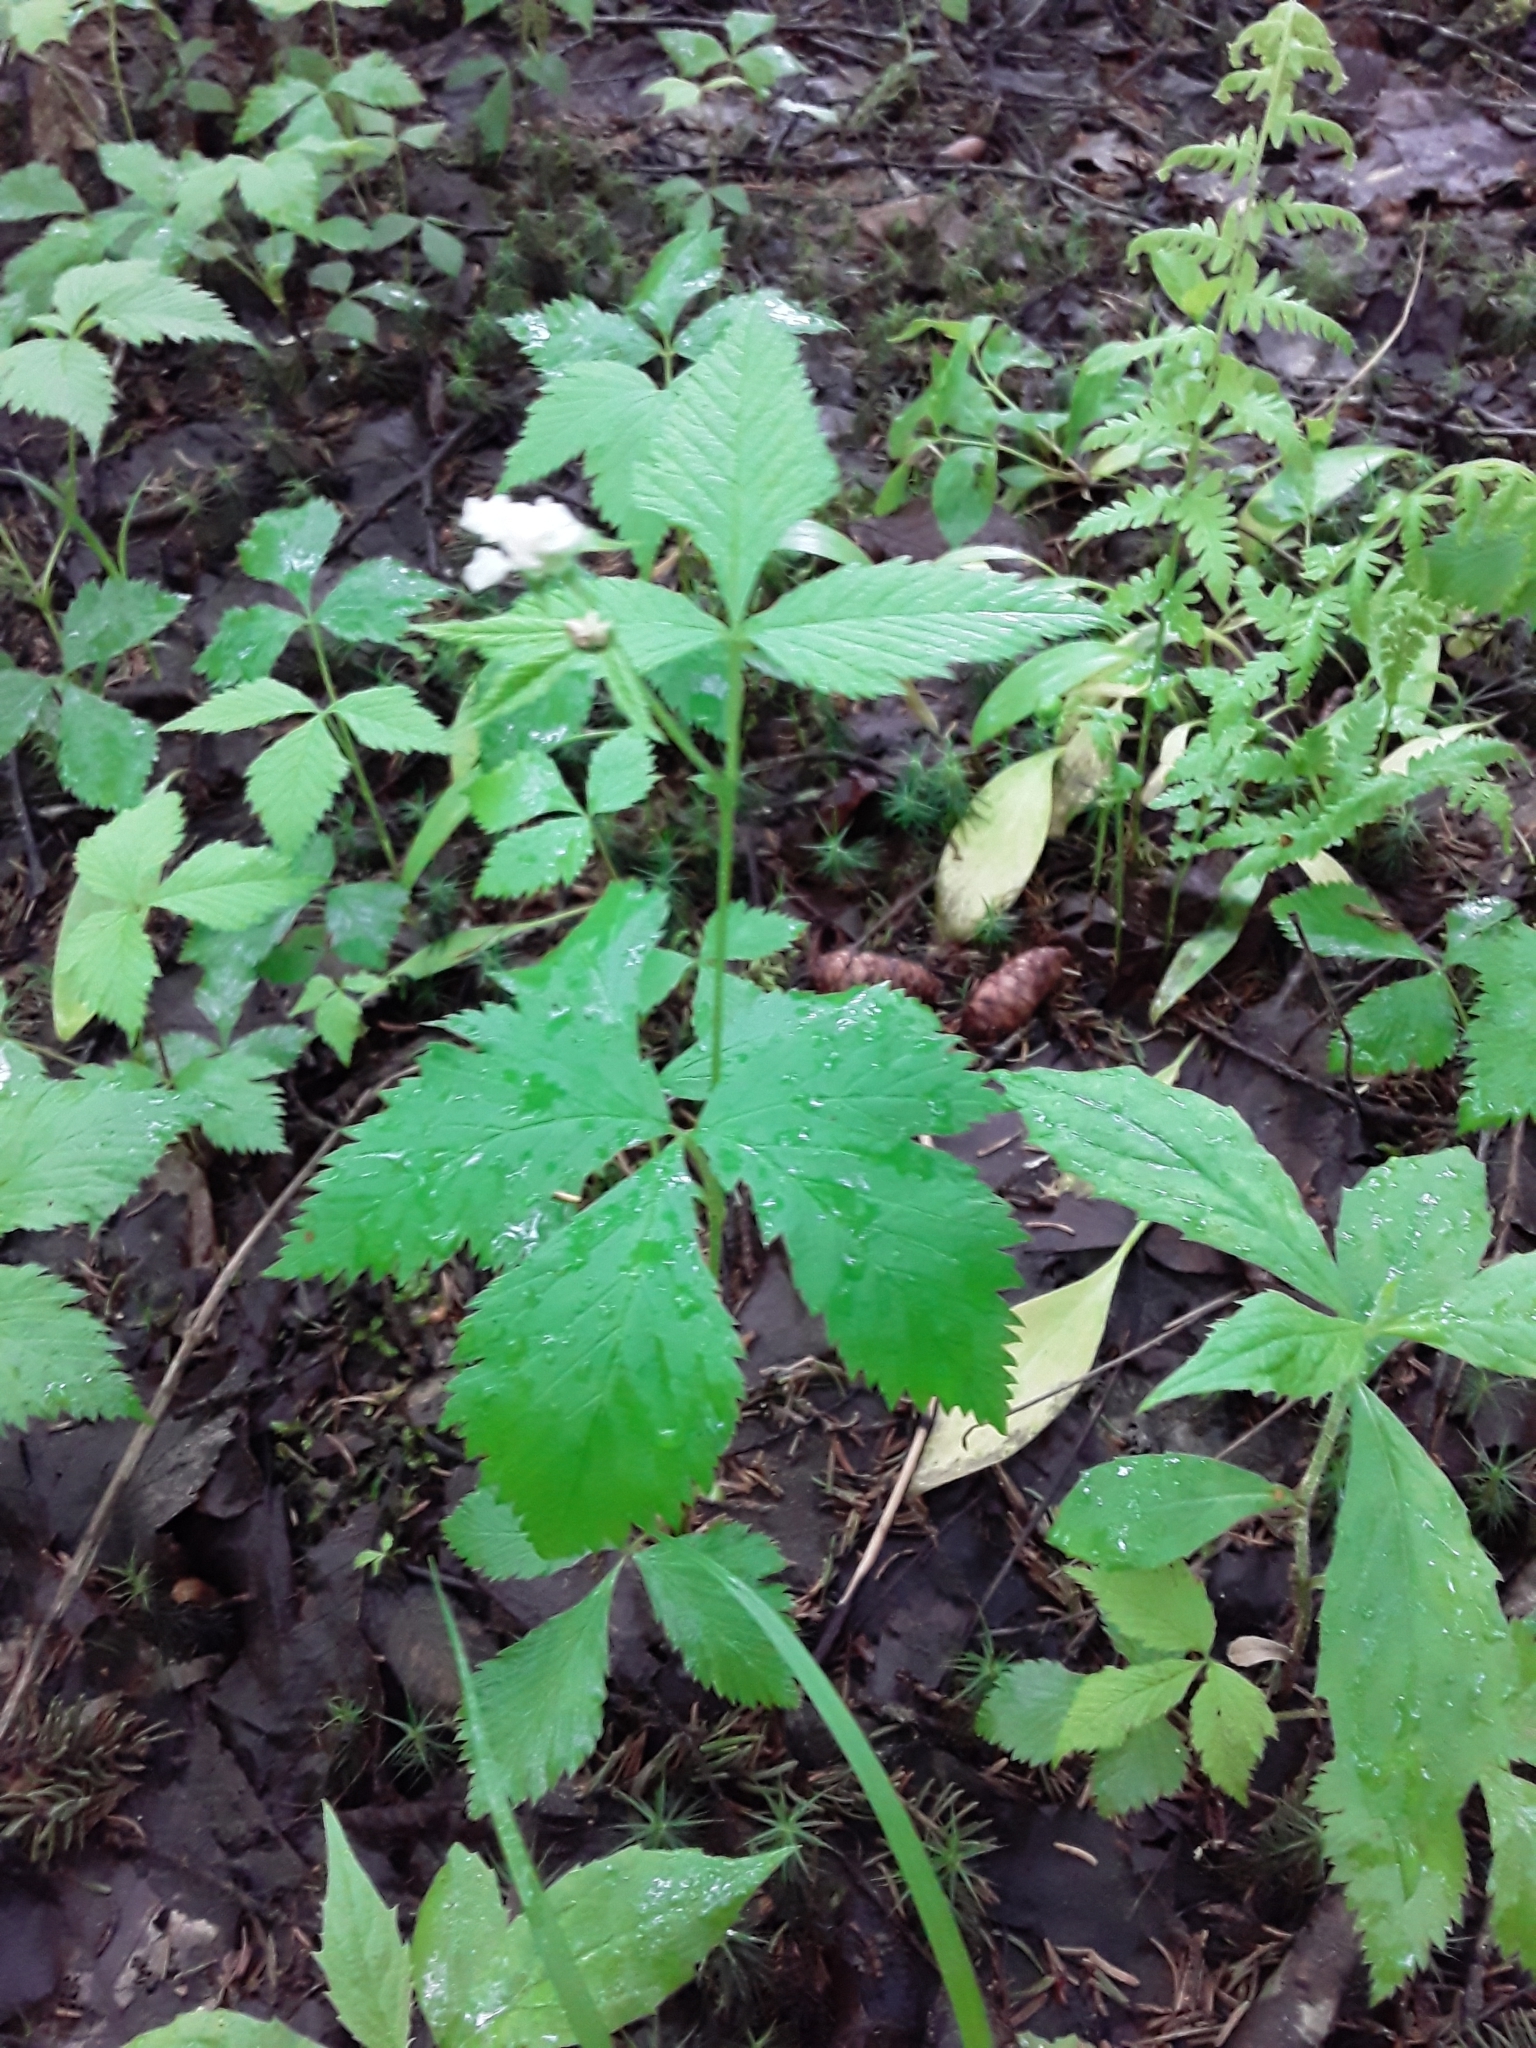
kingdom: Plantae
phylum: Tracheophyta
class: Magnoliopsida
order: Rosales
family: Rosaceae
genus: Rubus
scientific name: Rubus pubescens
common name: Dwarf raspberry
